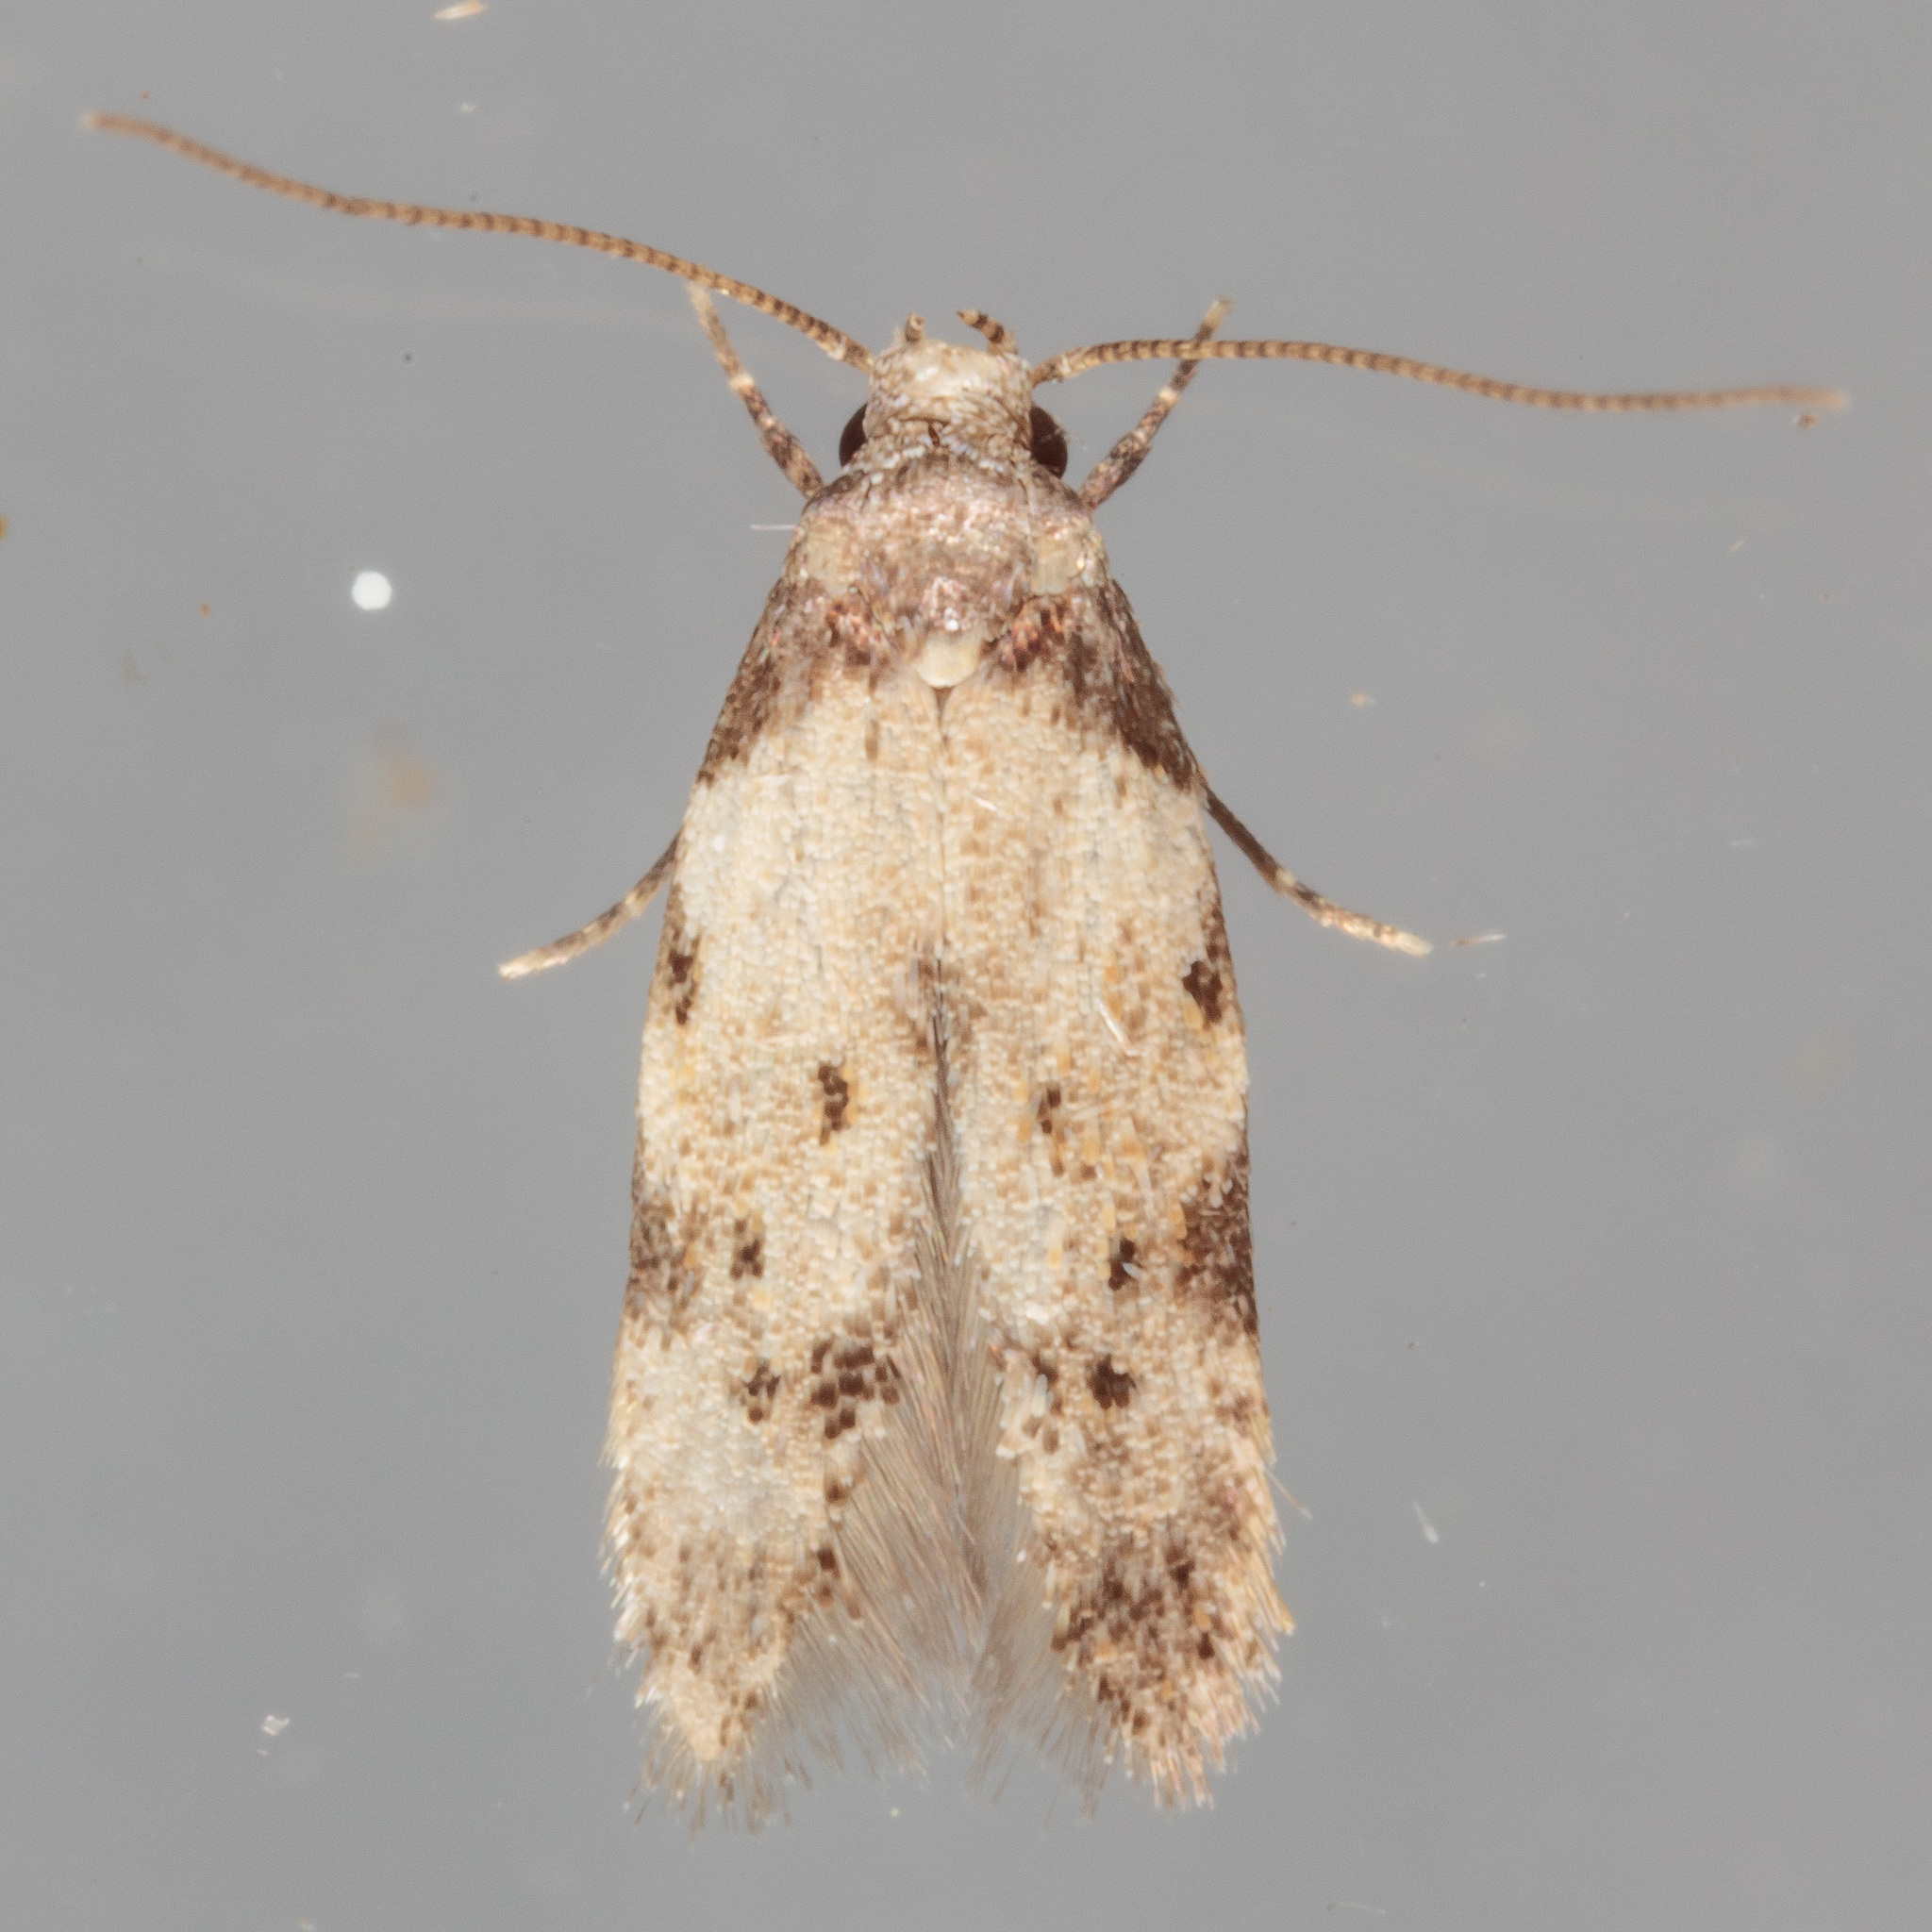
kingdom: Animalia
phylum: Arthropoda
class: Insecta
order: Lepidoptera
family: Autostichidae
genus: Taygete
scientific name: Taygete attributella
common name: Triangle-marked twirler moth
